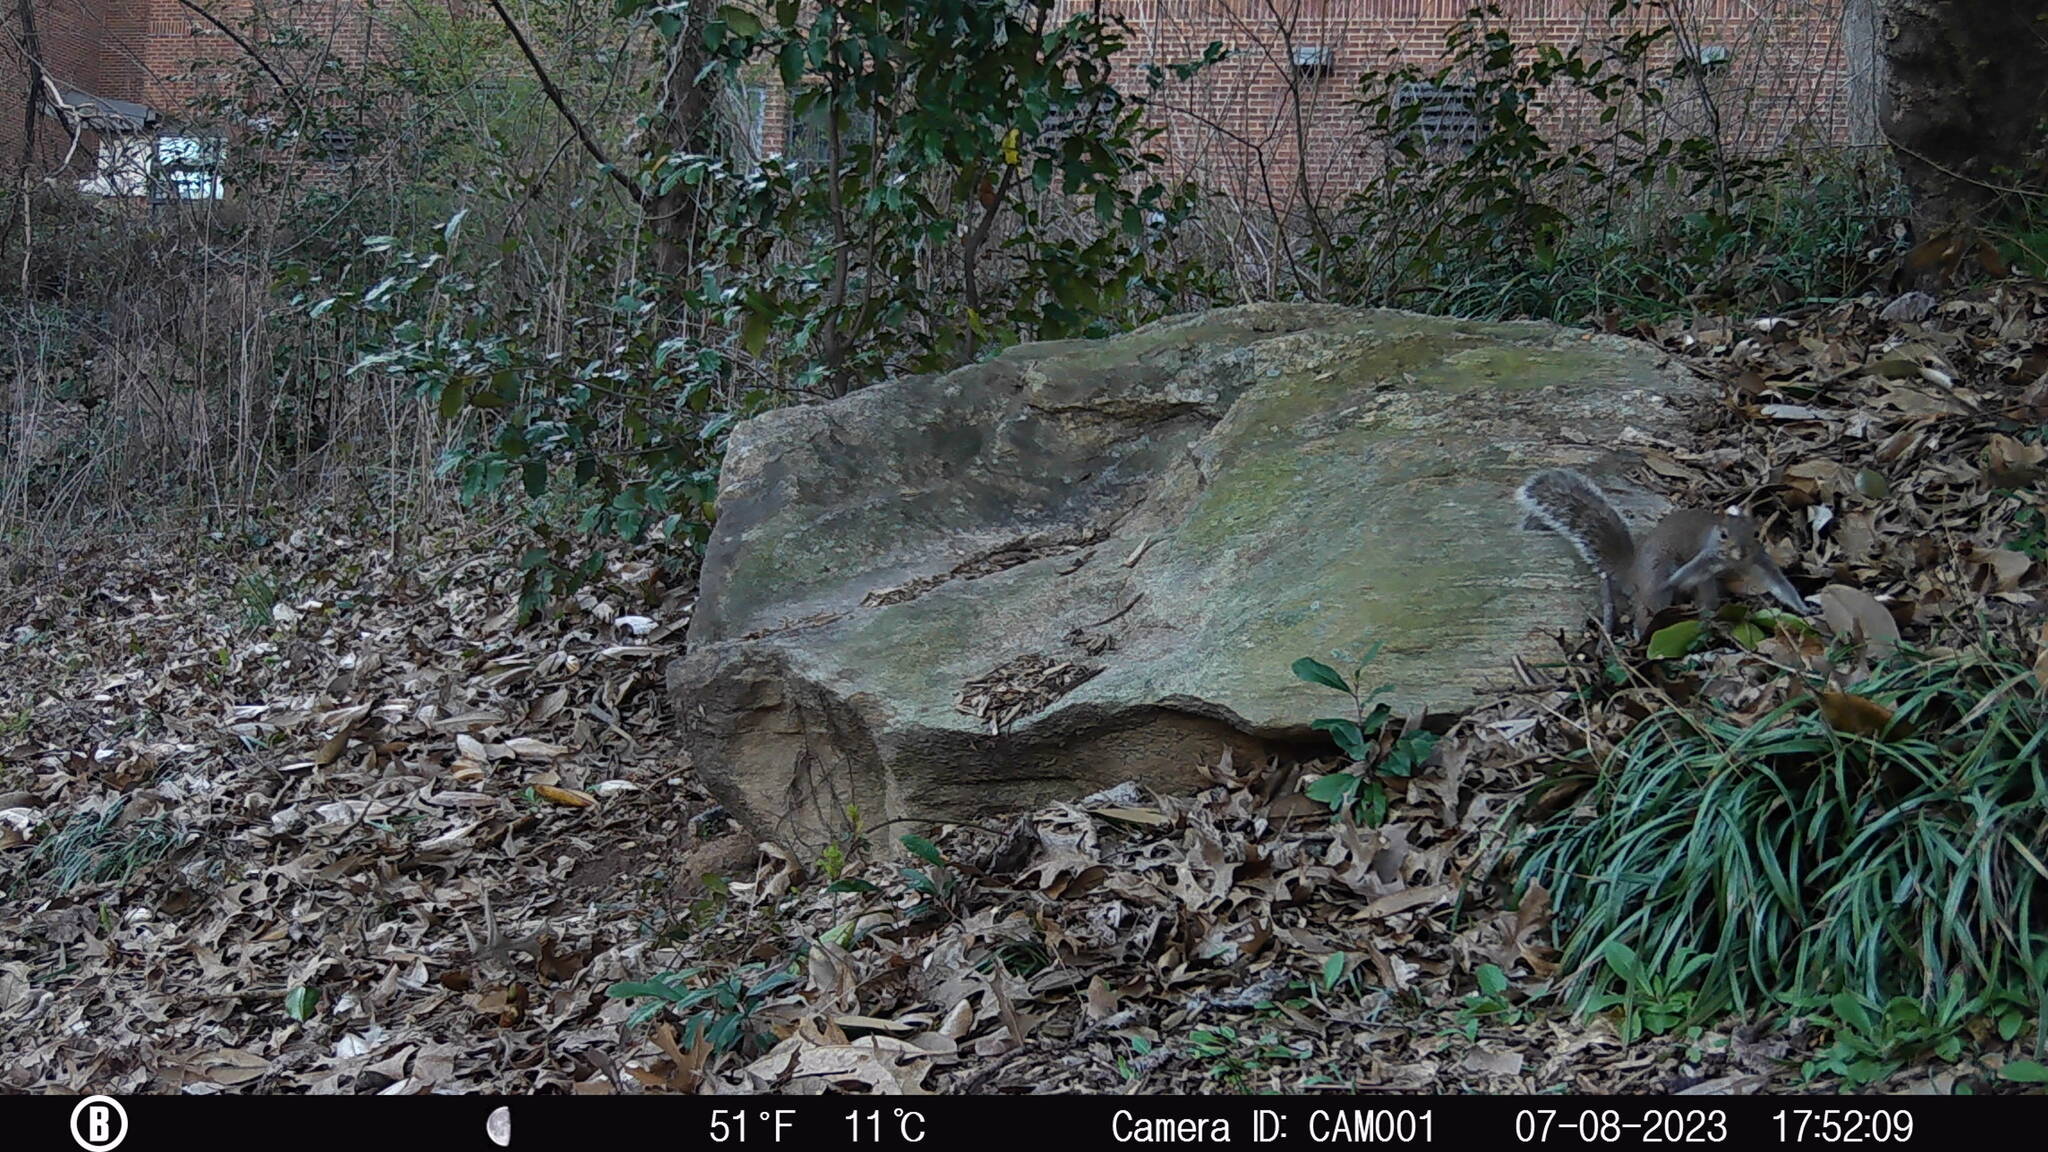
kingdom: Animalia
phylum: Chordata
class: Mammalia
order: Rodentia
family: Sciuridae
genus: Sciurus
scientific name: Sciurus carolinensis
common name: Eastern gray squirrel
